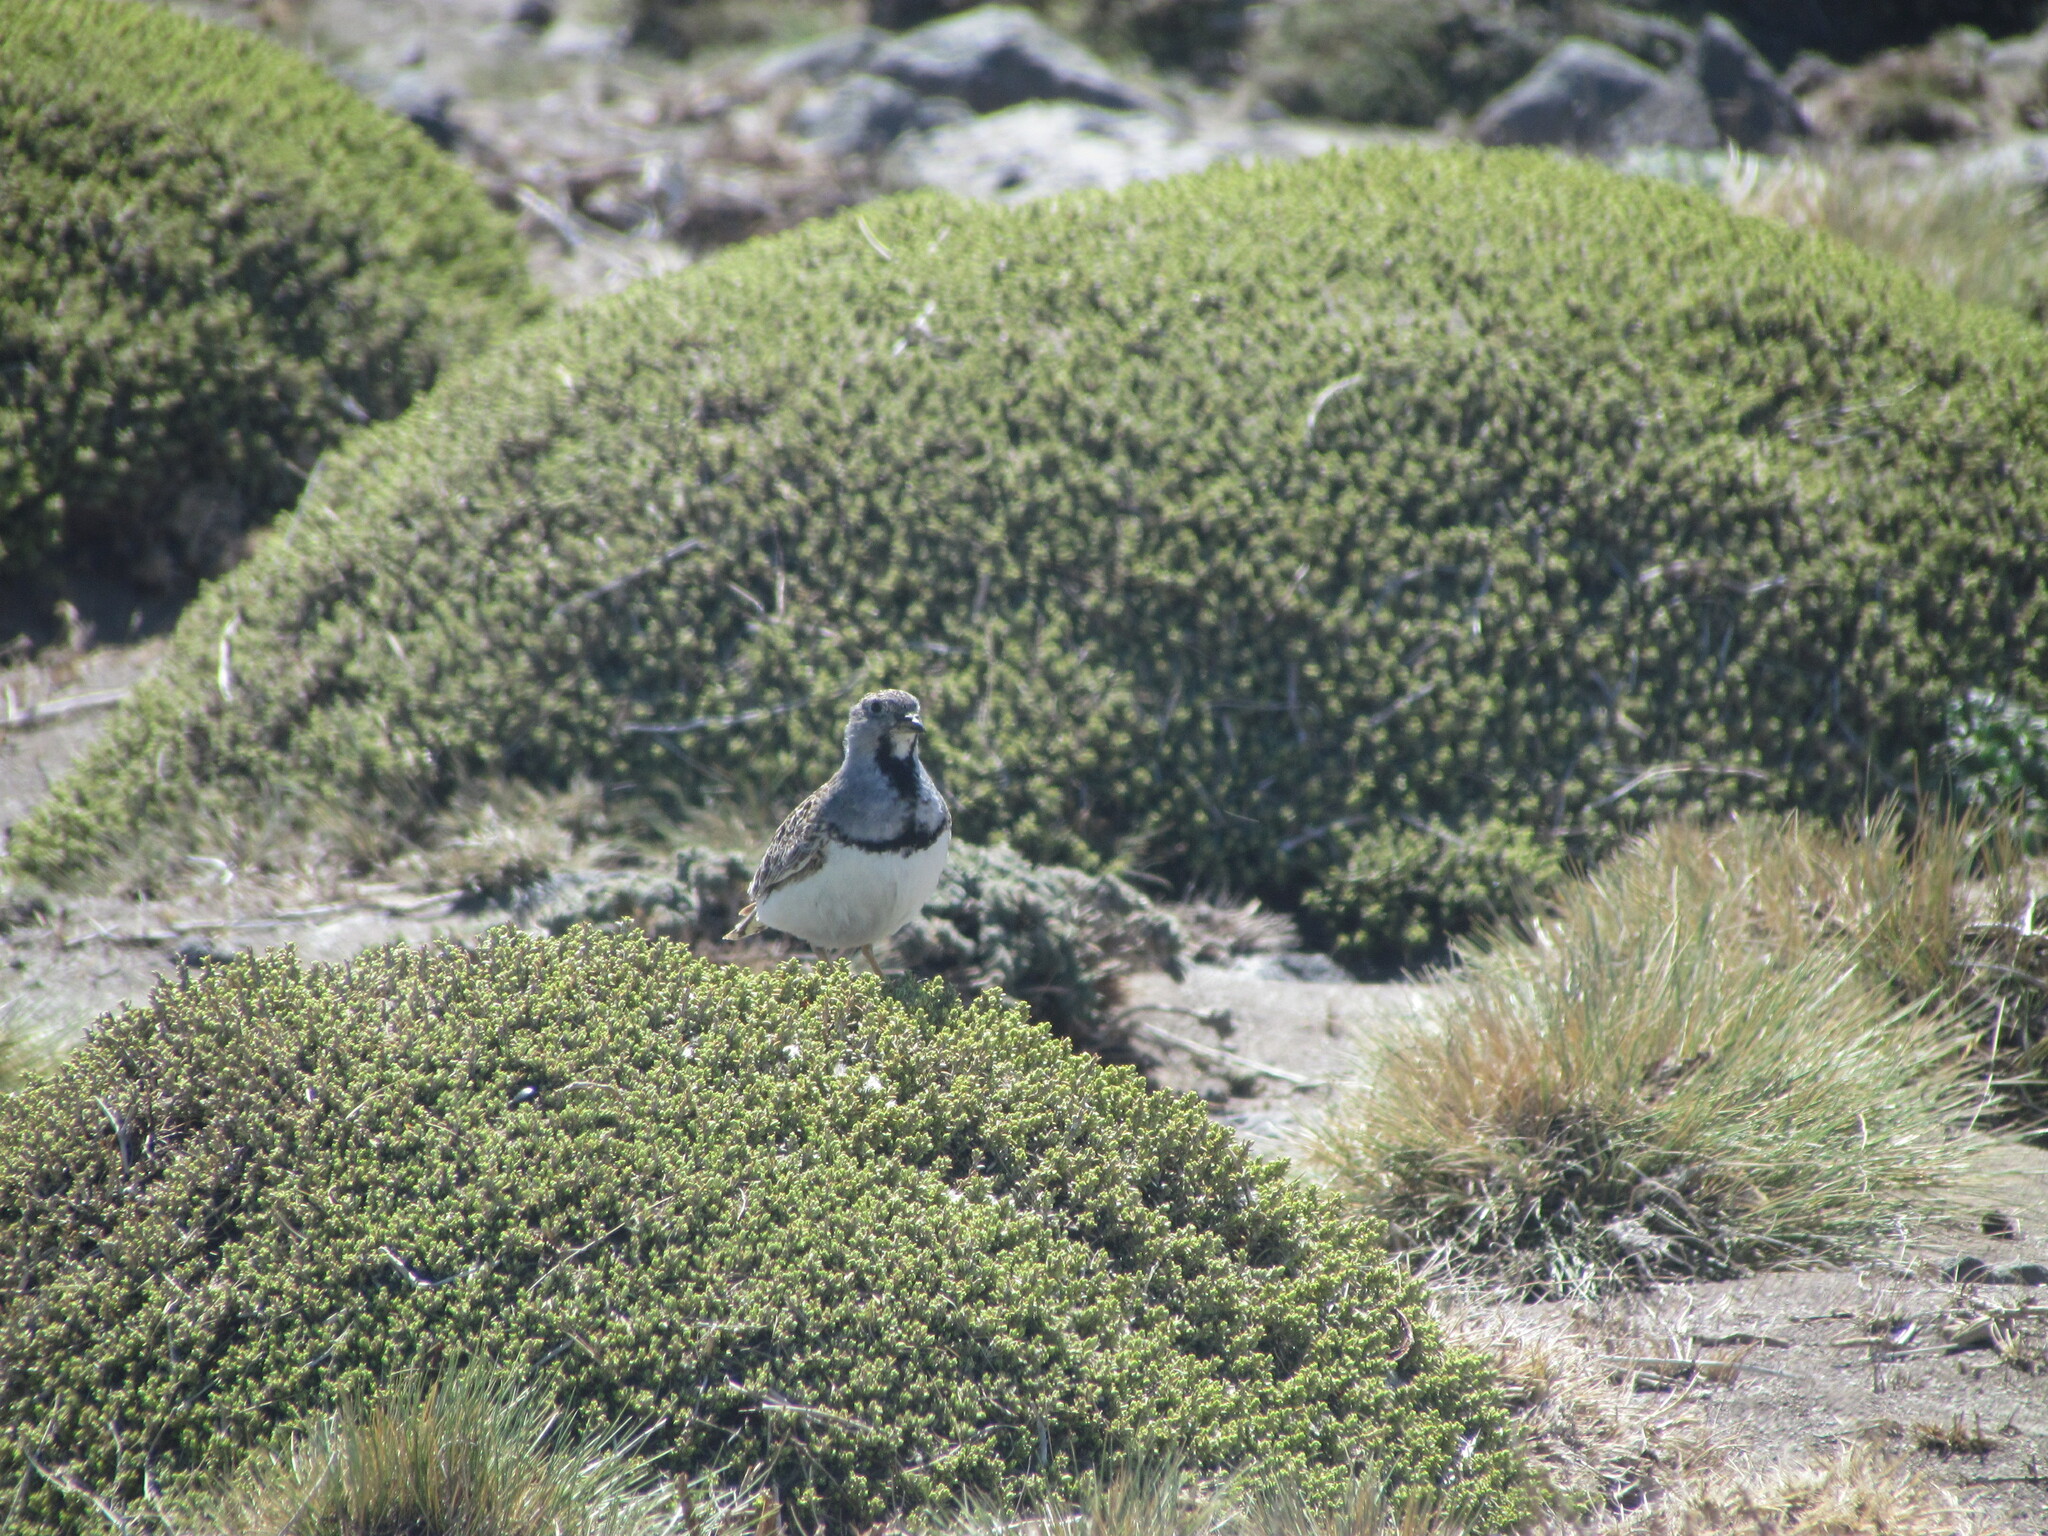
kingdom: Animalia
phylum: Chordata
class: Aves
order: Charadriiformes
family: Thinocoridae
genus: Thinocorus
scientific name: Thinocorus rumicivorus
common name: Least seedsnipe
